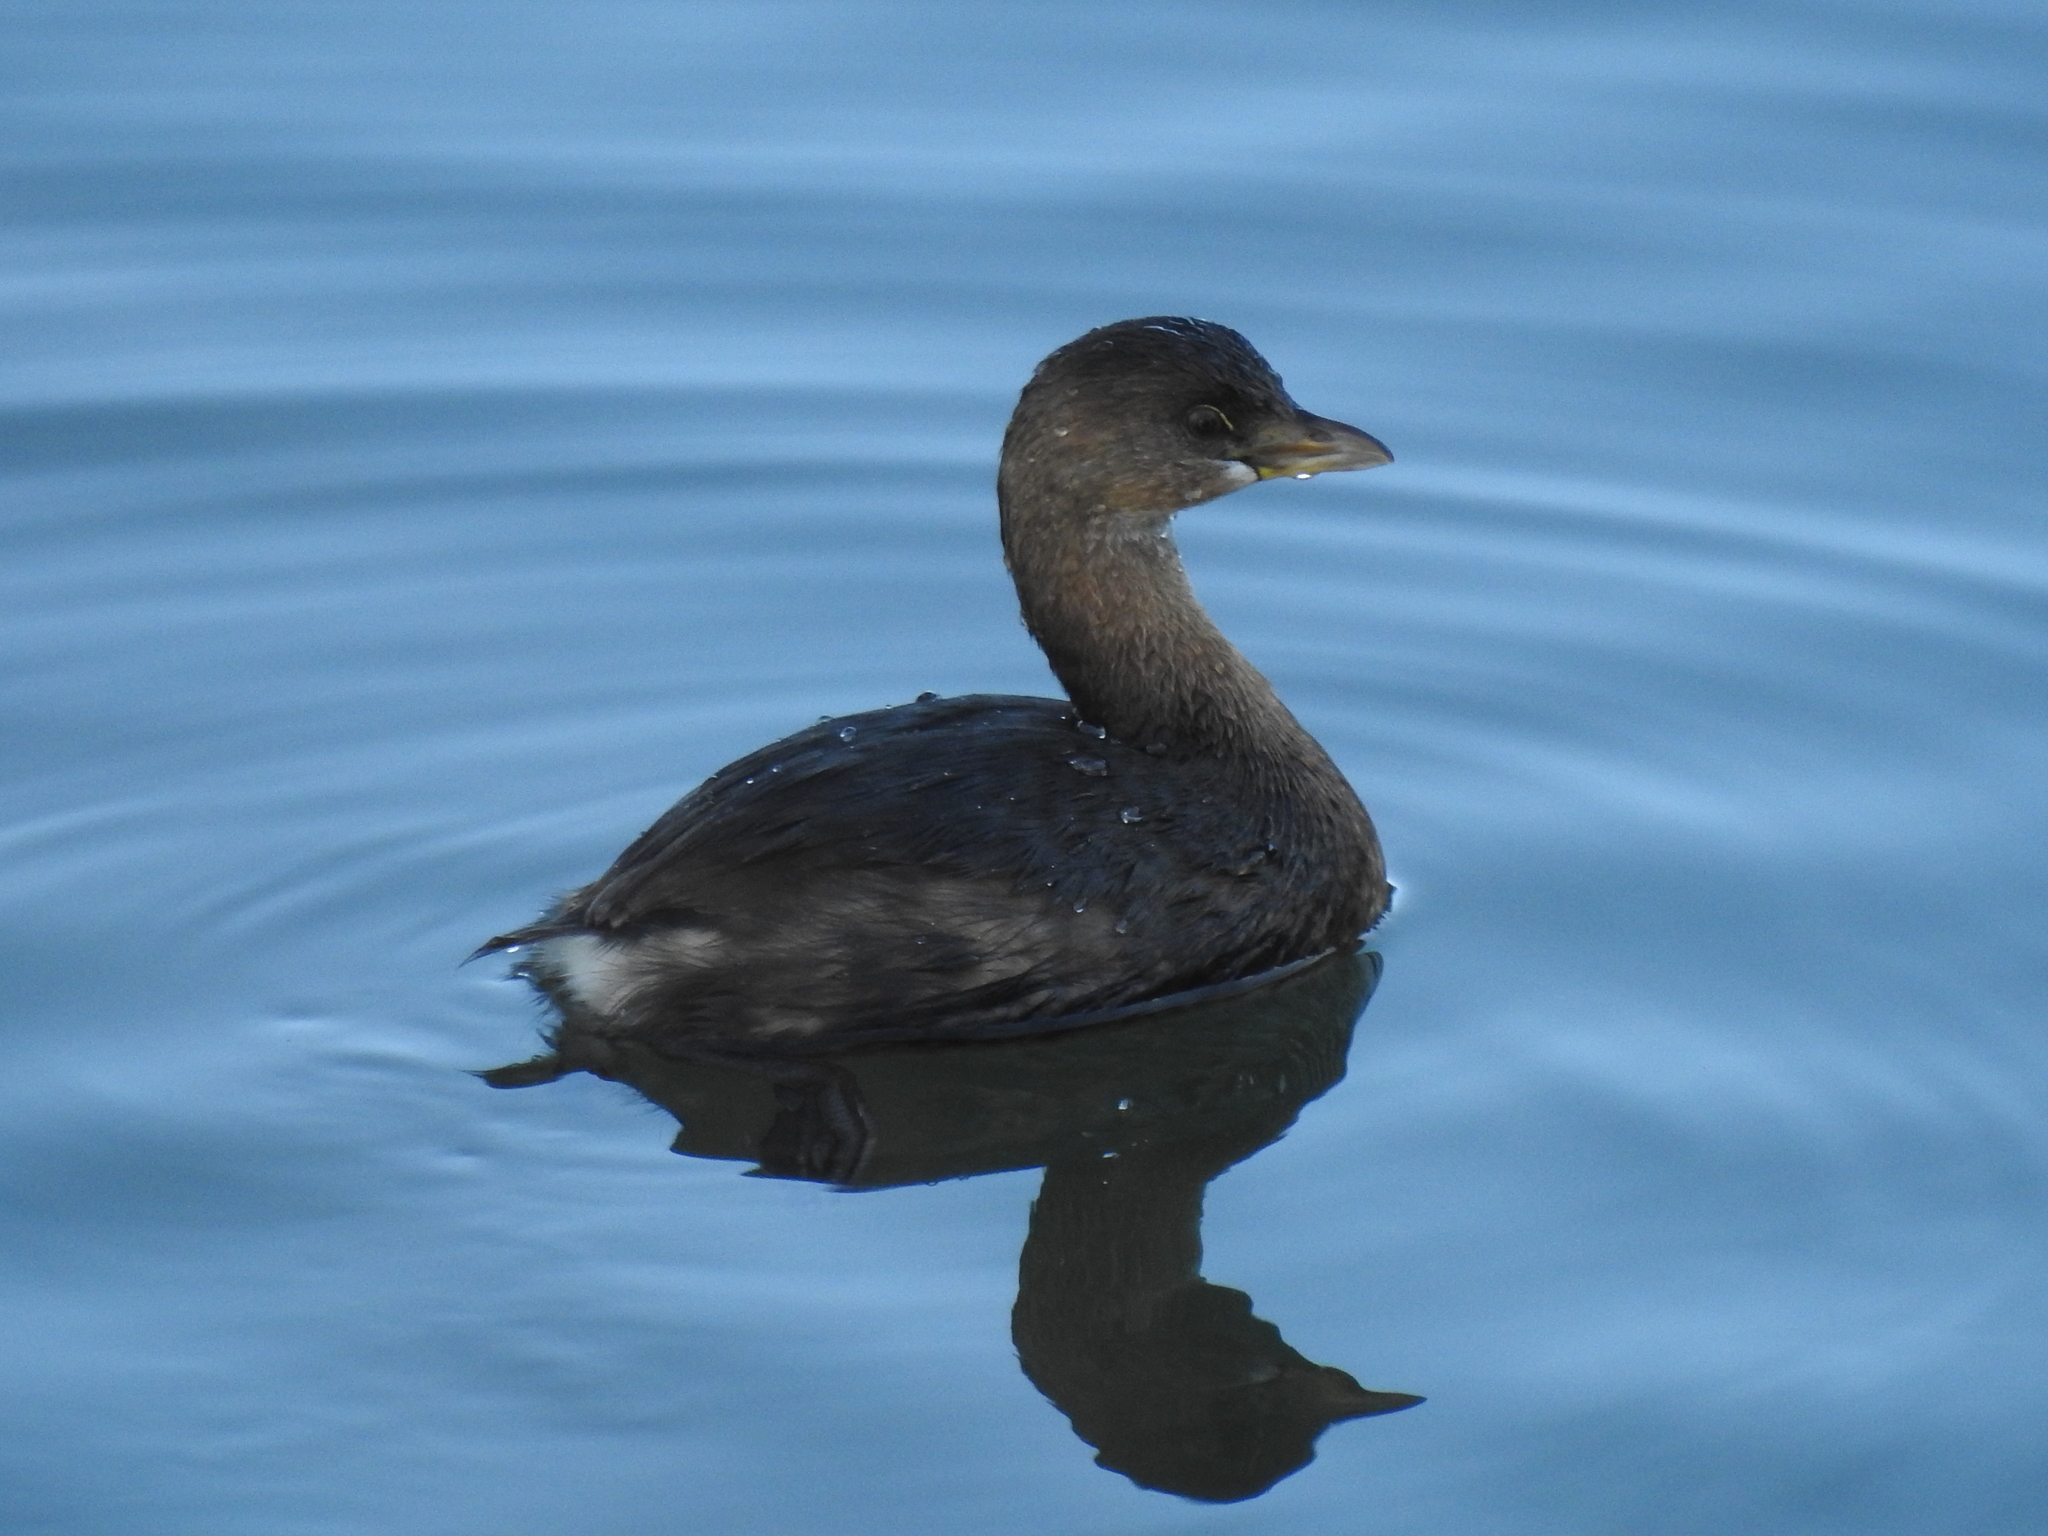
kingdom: Animalia
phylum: Chordata
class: Aves
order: Podicipediformes
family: Podicipedidae
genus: Podilymbus
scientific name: Podilymbus podiceps
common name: Pied-billed grebe
